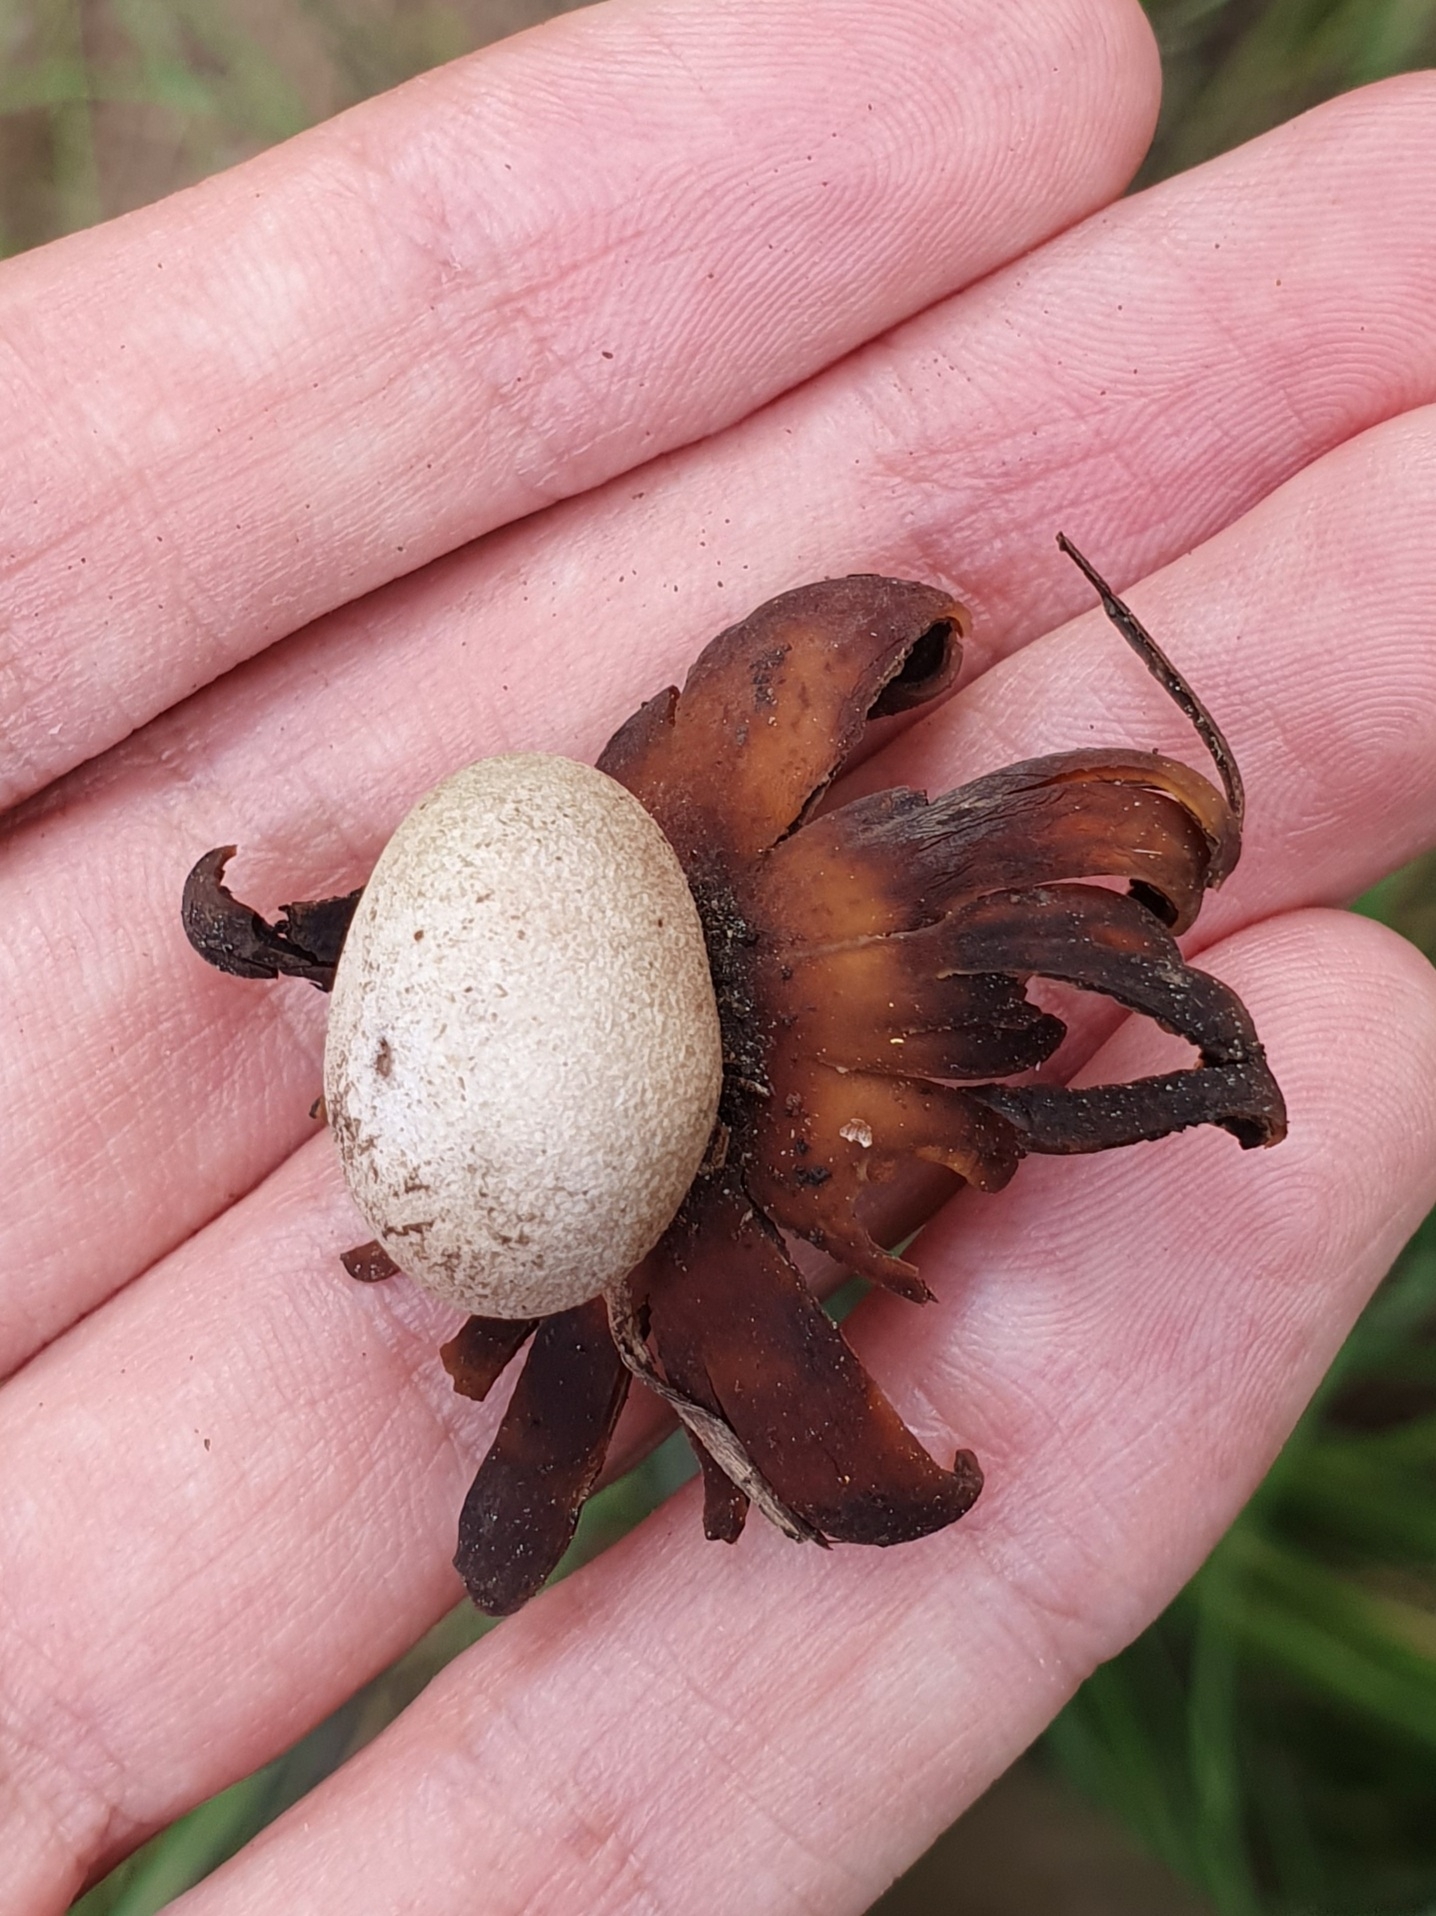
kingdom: Fungi
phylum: Basidiomycota
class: Agaricomycetes
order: Boletales
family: Diplocystidiaceae
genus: Astraeus
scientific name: Astraeus hygrometricus
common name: Barometer earthstar
